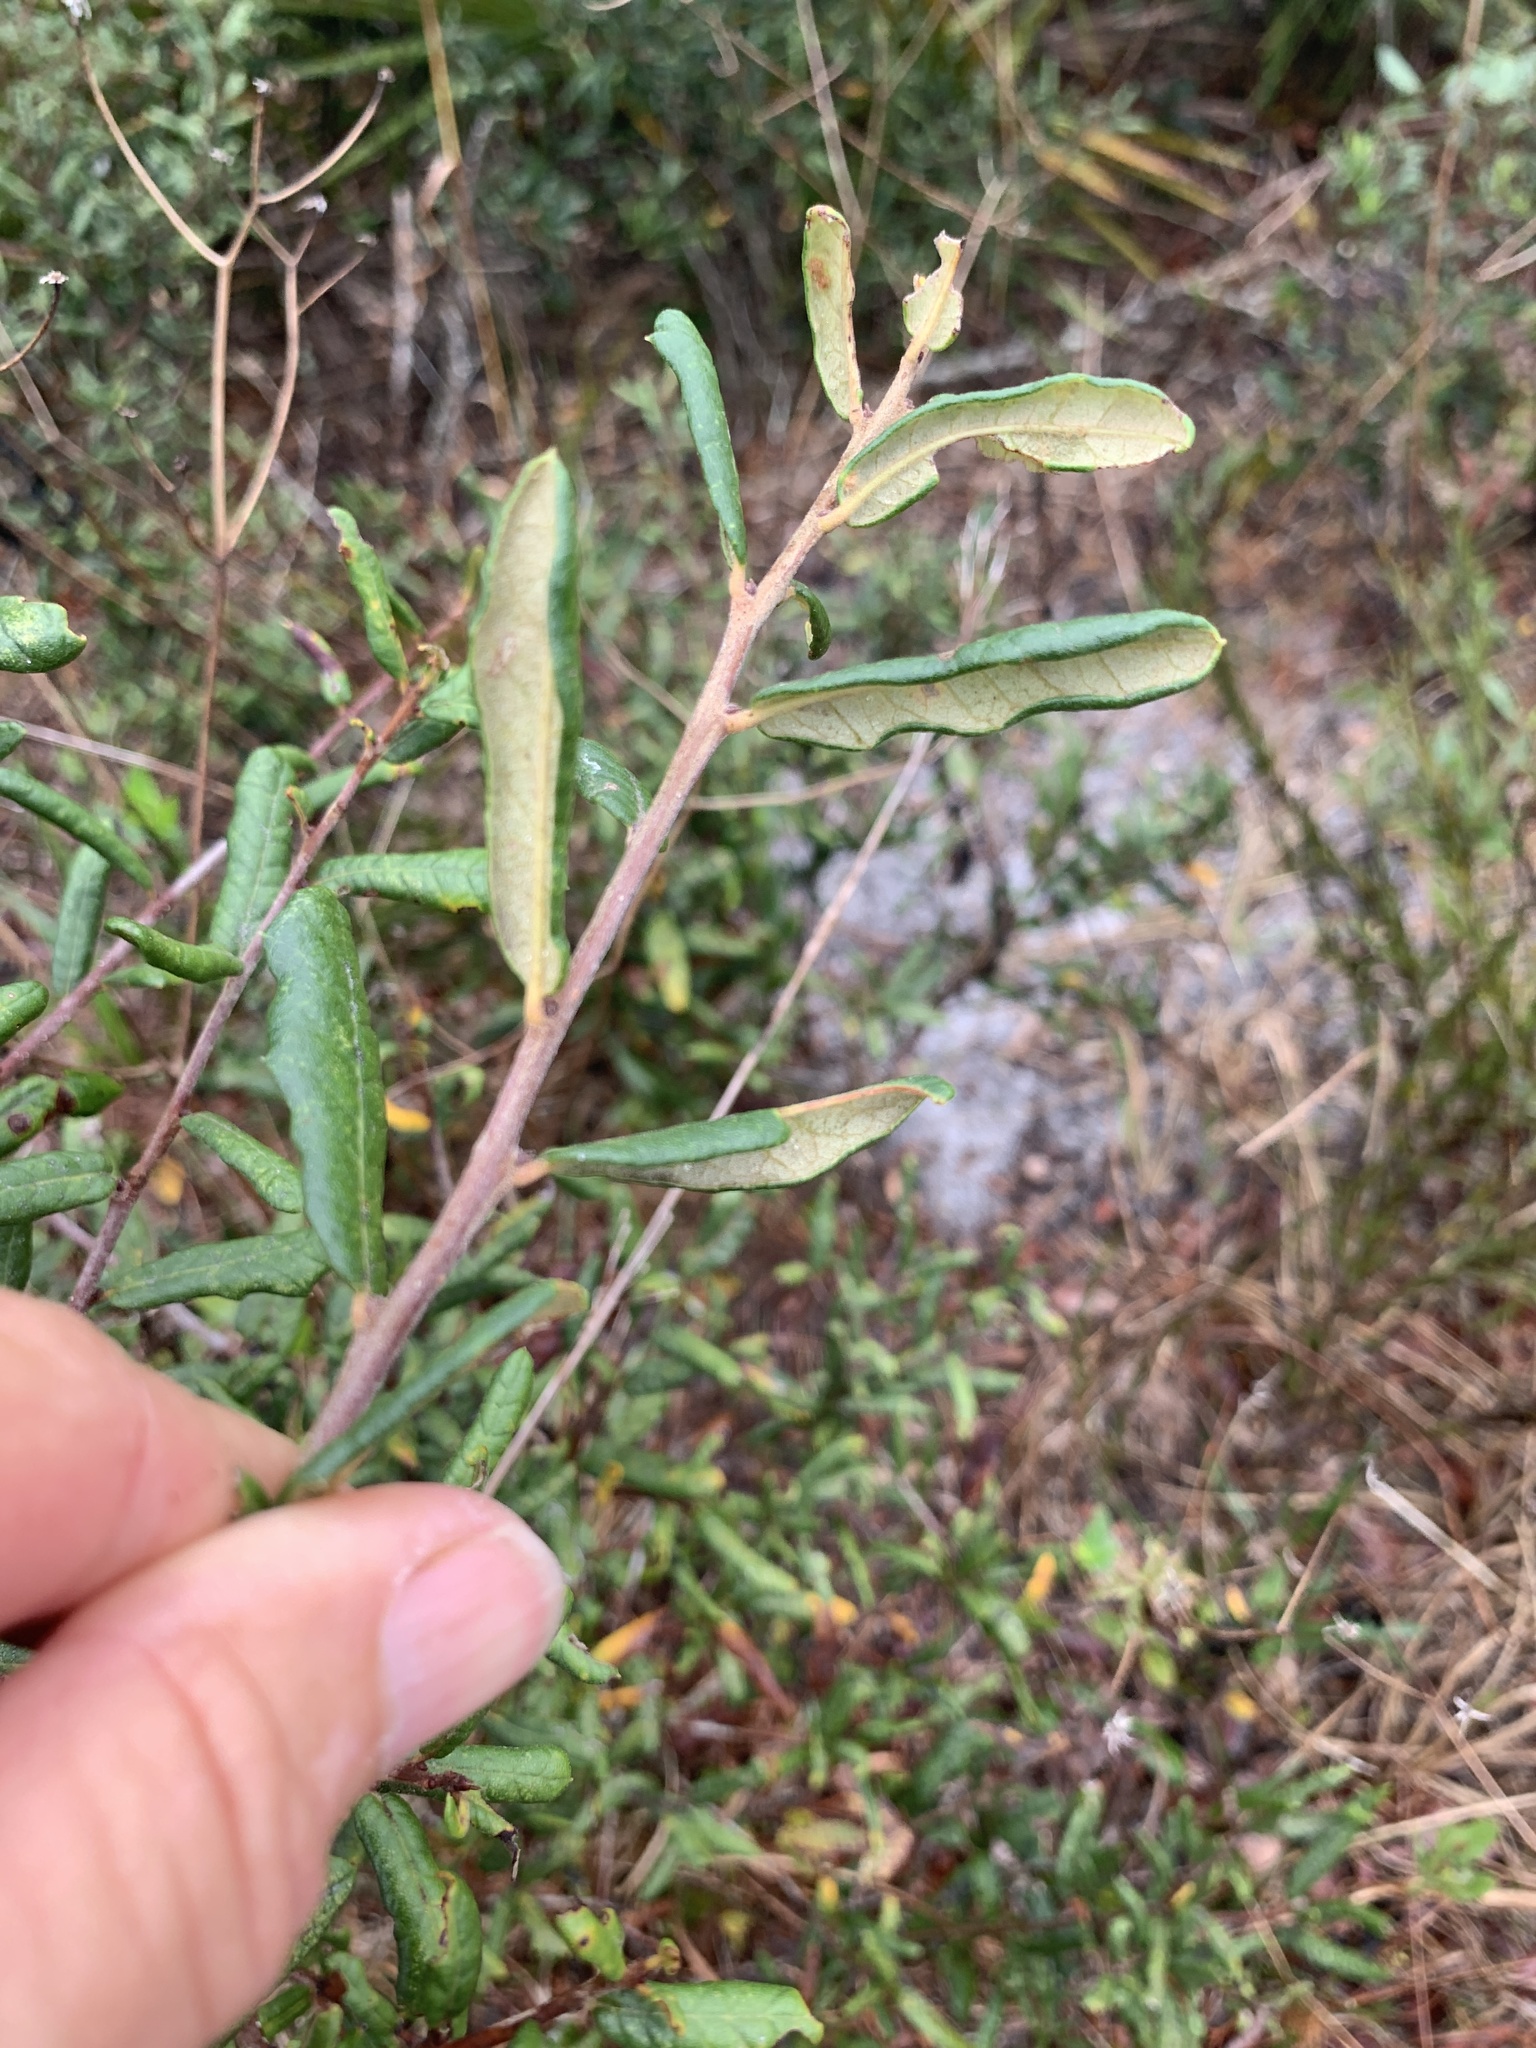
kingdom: Plantae
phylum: Tracheophyta
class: Magnoliopsida
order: Fagales
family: Fagaceae
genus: Quercus
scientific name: Quercus geminata
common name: Sand live oak
